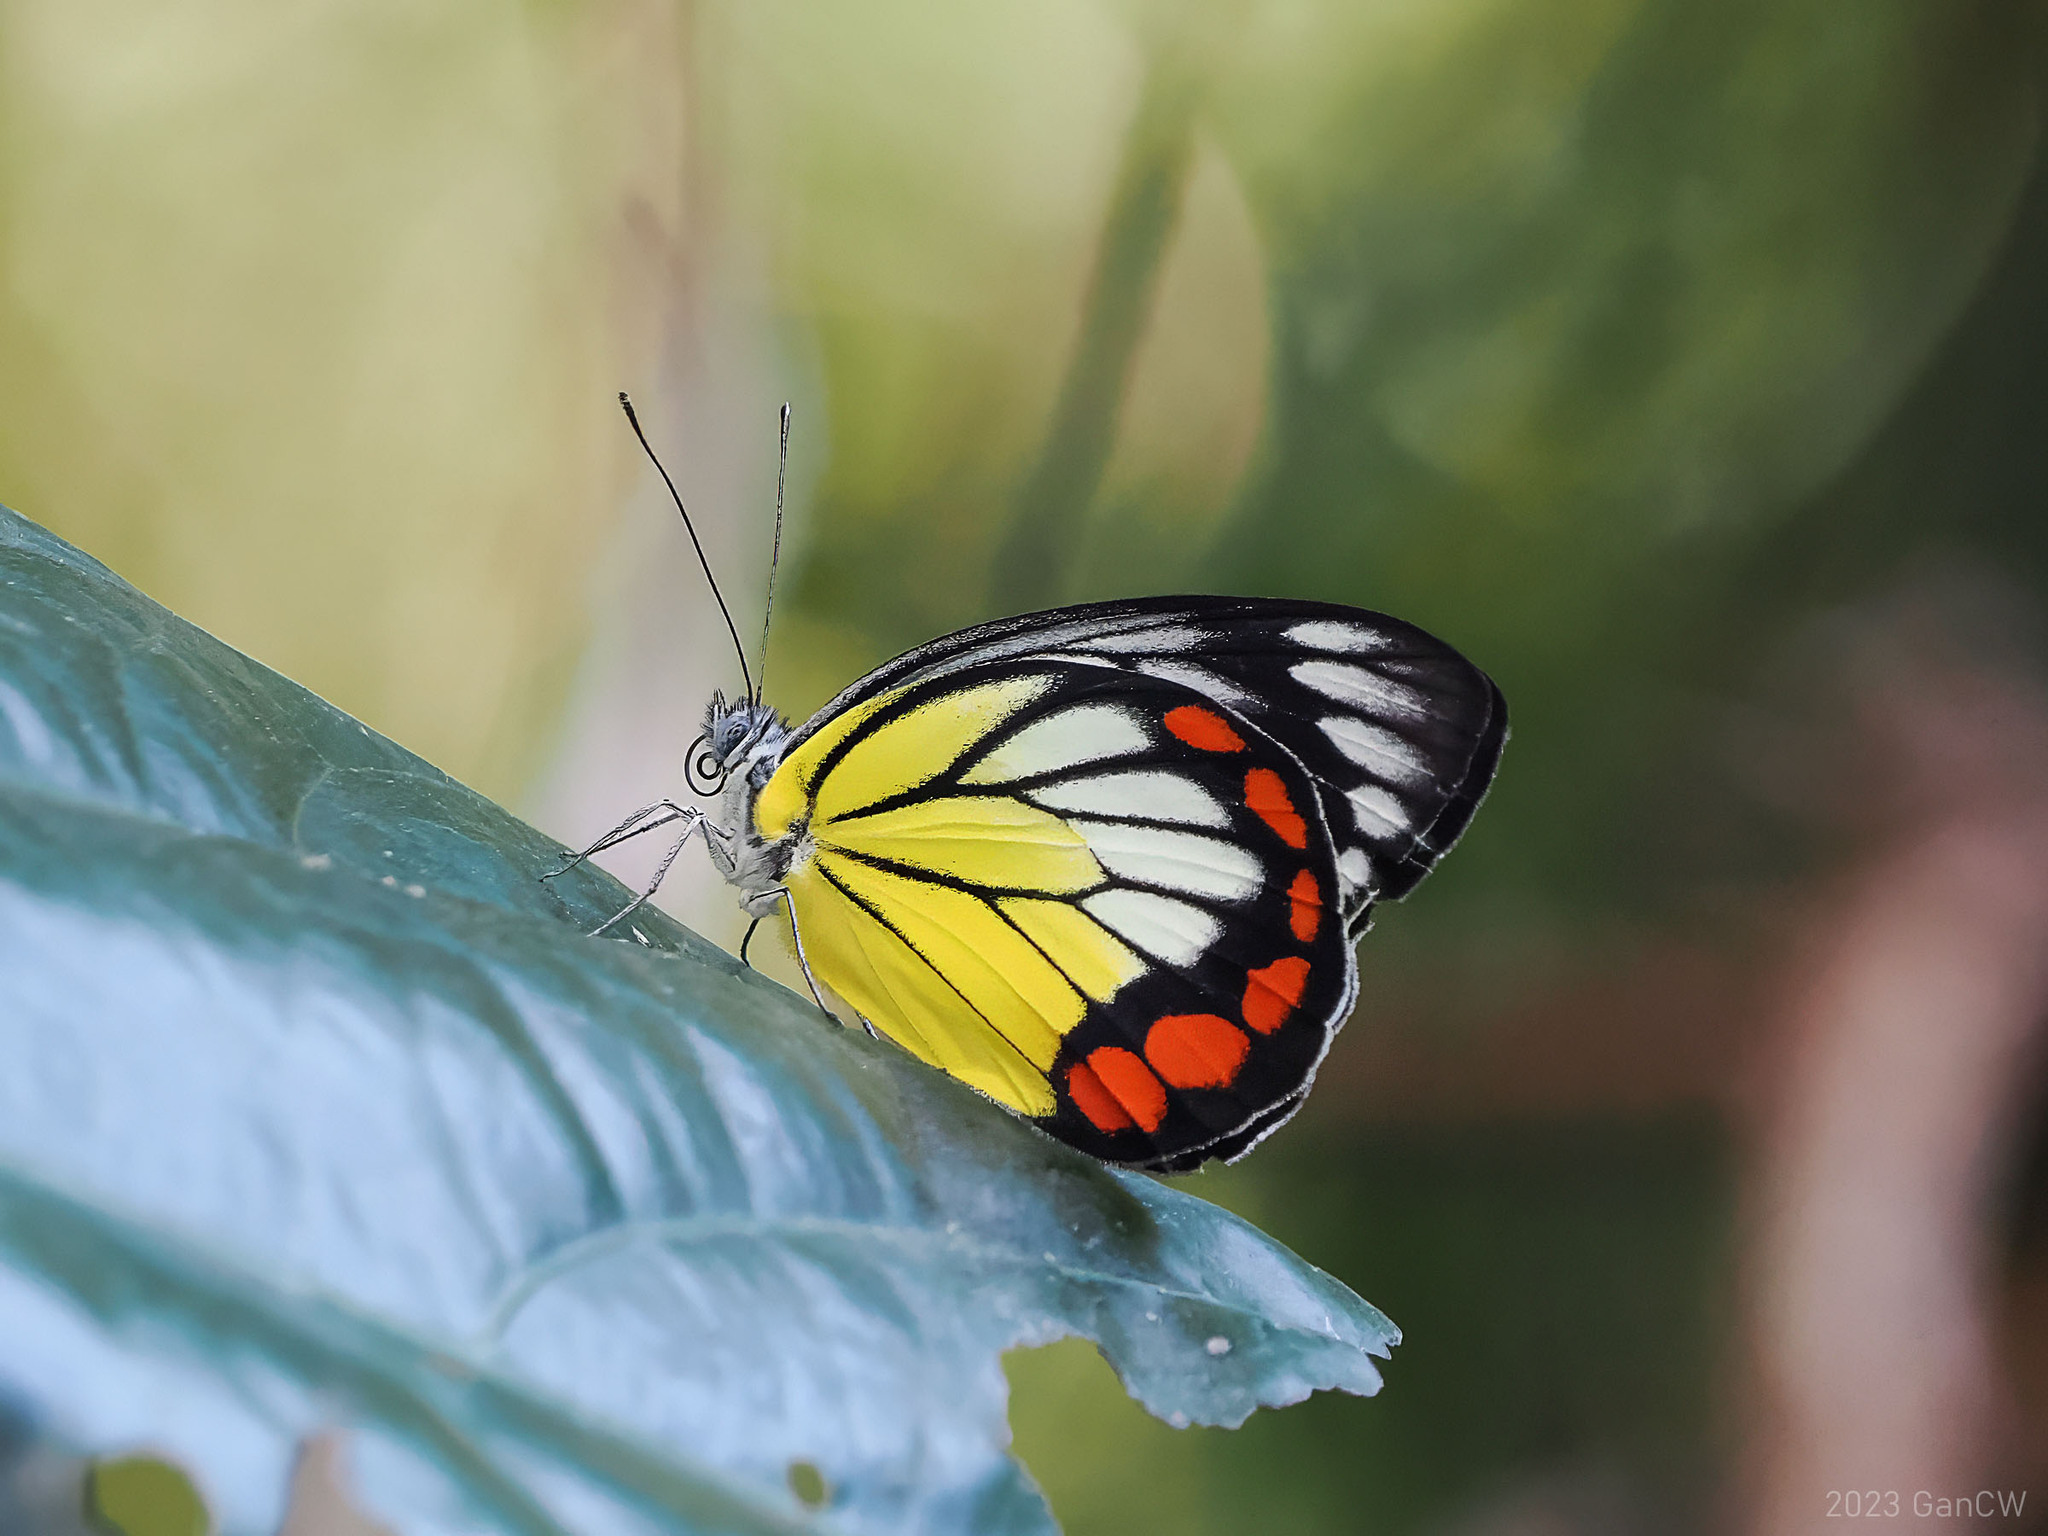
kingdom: Animalia
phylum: Arthropoda
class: Insecta
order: Lepidoptera
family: Pieridae
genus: Delias
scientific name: Delias hyparete
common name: Painted jezebel
